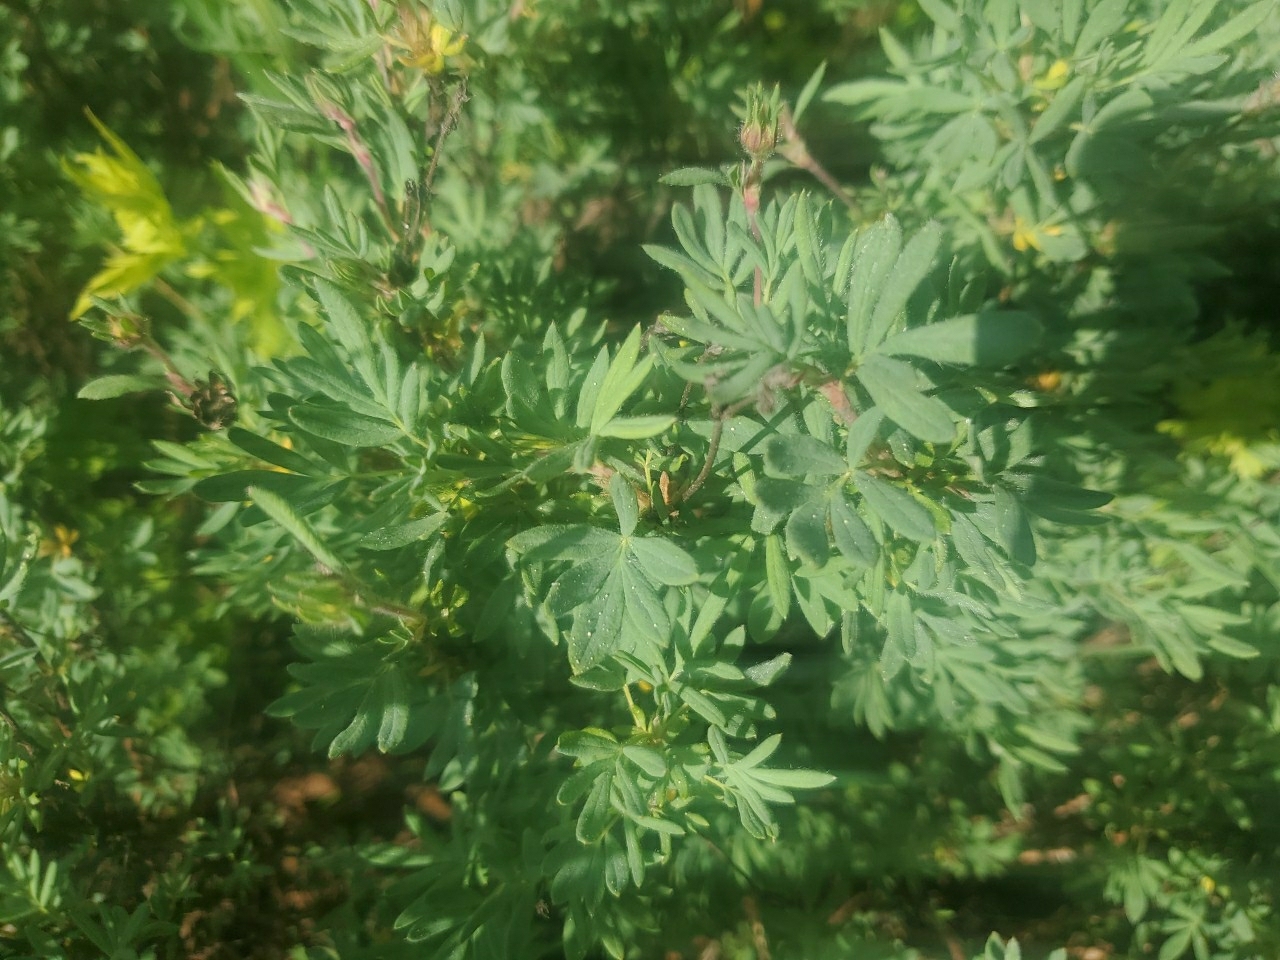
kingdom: Plantae
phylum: Tracheophyta
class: Magnoliopsida
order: Rosales
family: Rosaceae
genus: Dasiphora
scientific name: Dasiphora fruticosa
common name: Shrubby cinquefoil
